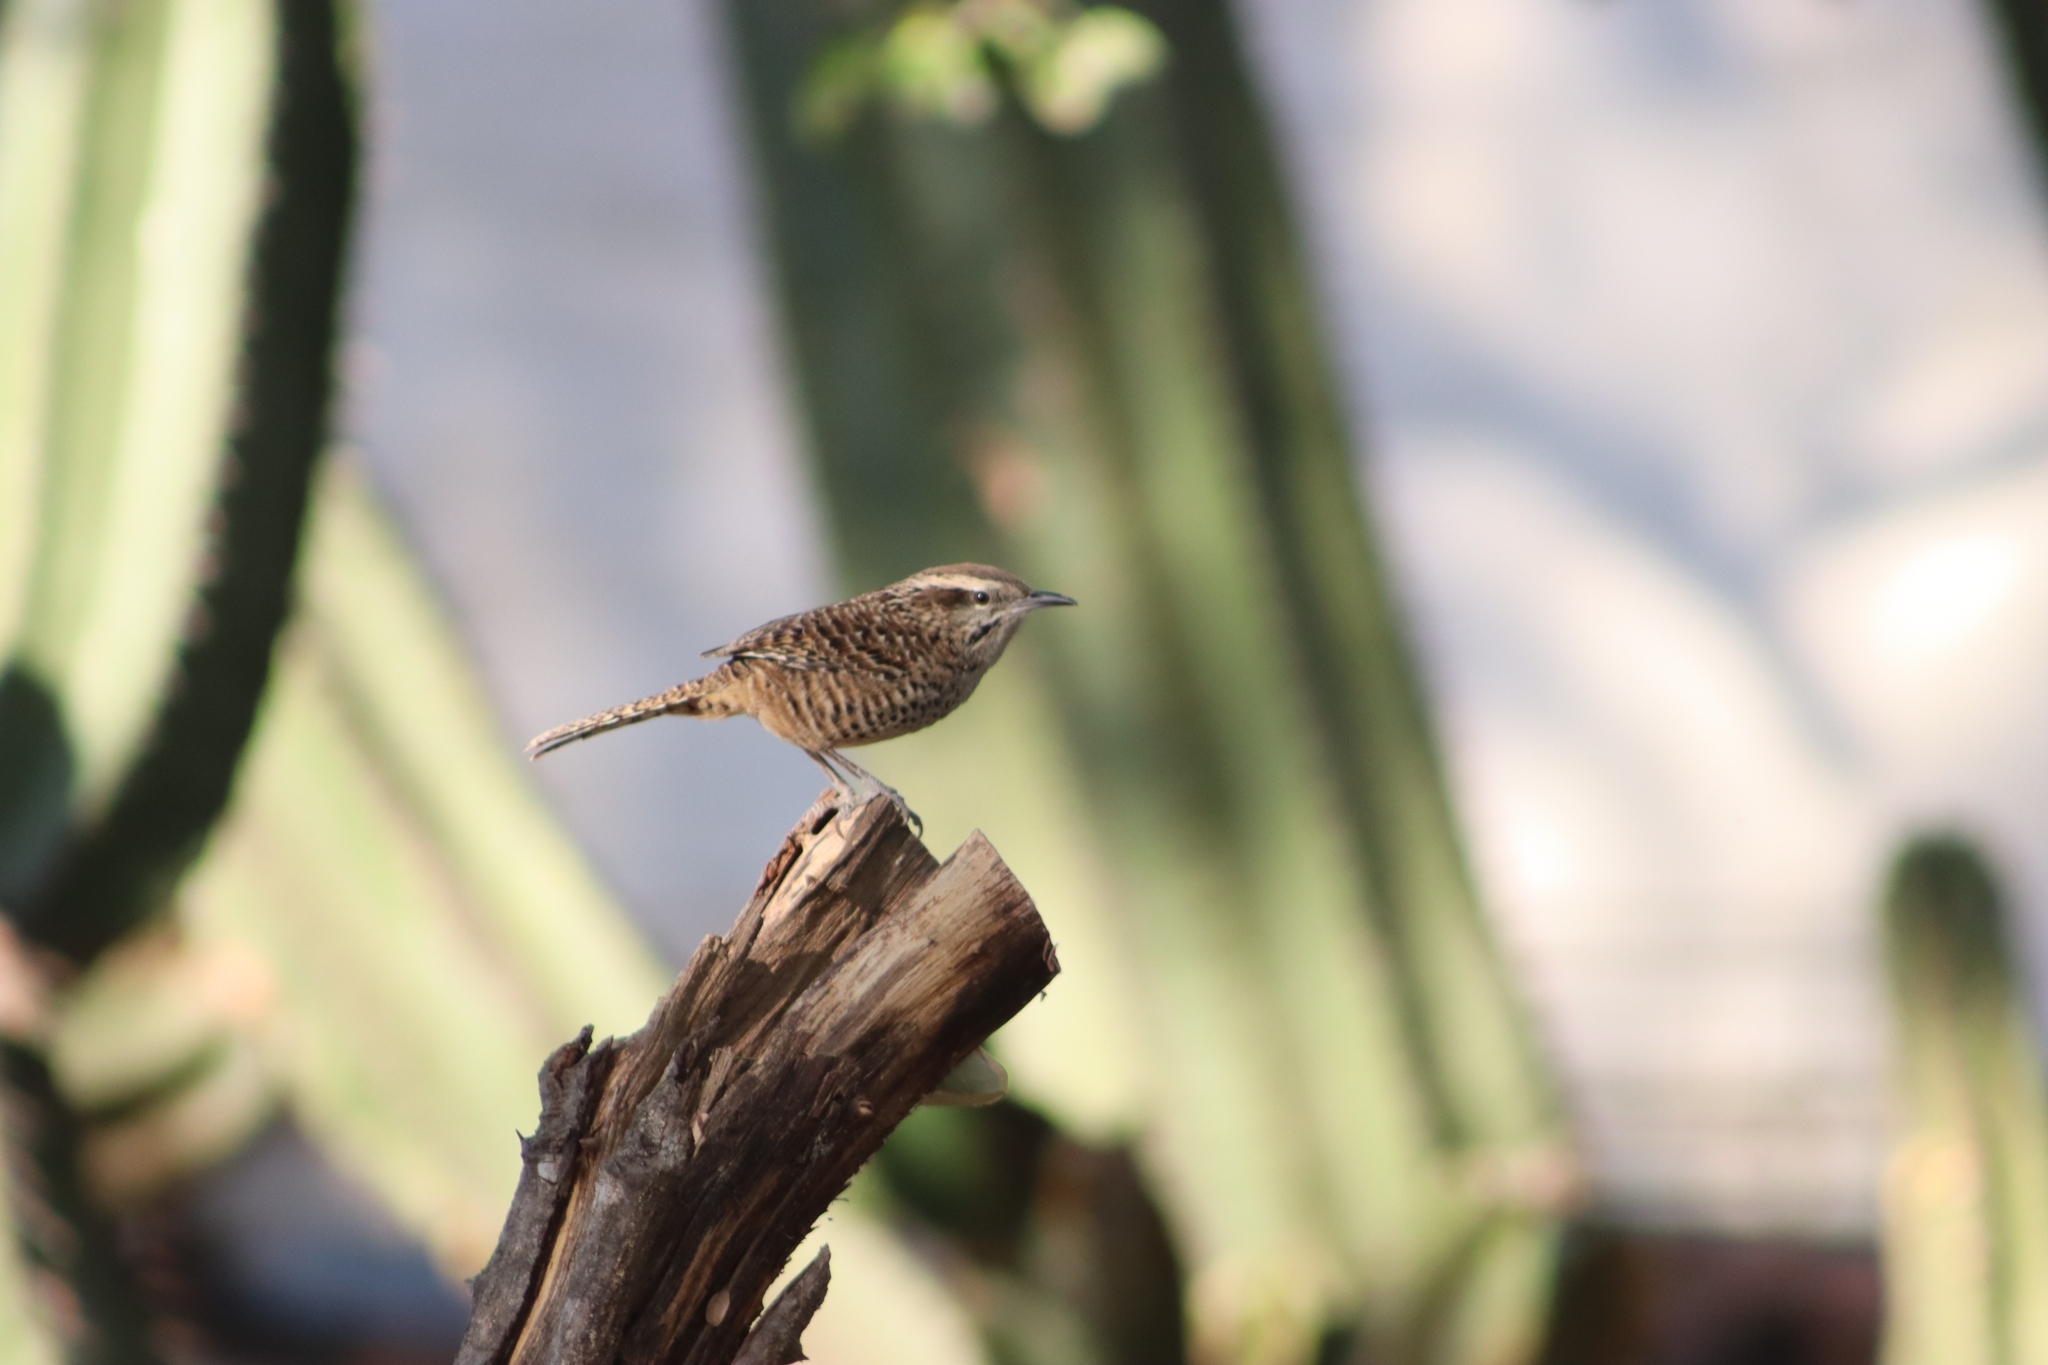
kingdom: Animalia
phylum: Chordata
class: Aves
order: Passeriformes
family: Troglodytidae
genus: Campylorhynchus
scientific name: Campylorhynchus gularis
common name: Spotted wren
